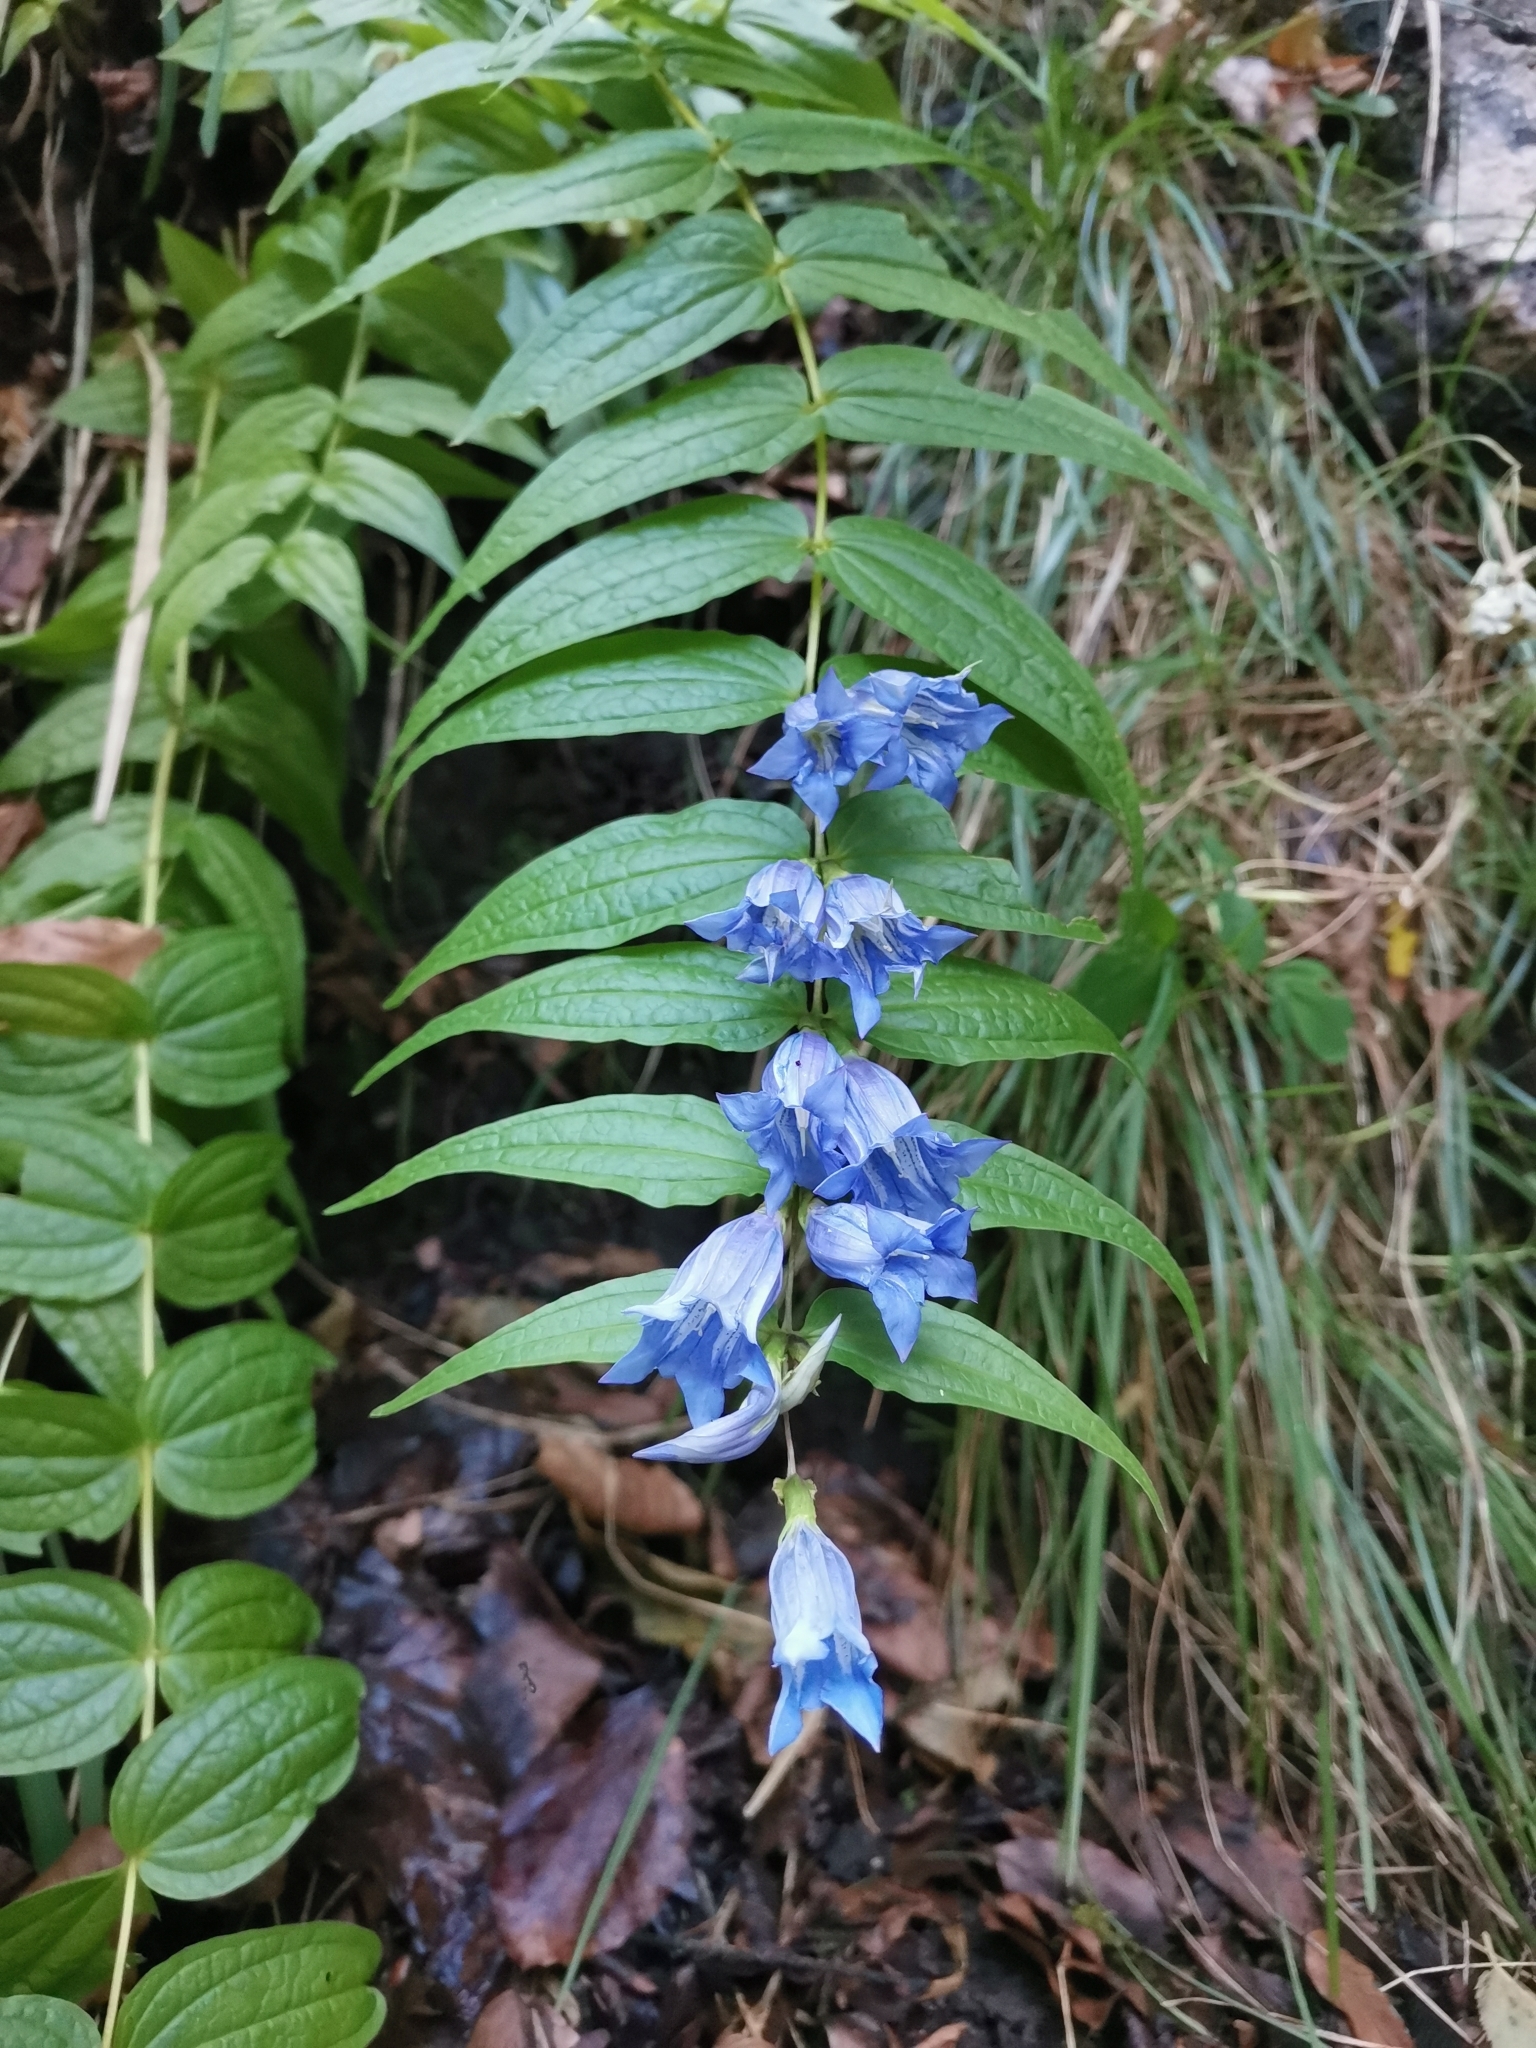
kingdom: Plantae
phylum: Tracheophyta
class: Magnoliopsida
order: Gentianales
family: Gentianaceae
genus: Gentiana
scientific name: Gentiana asclepiadea
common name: Willow gentian
